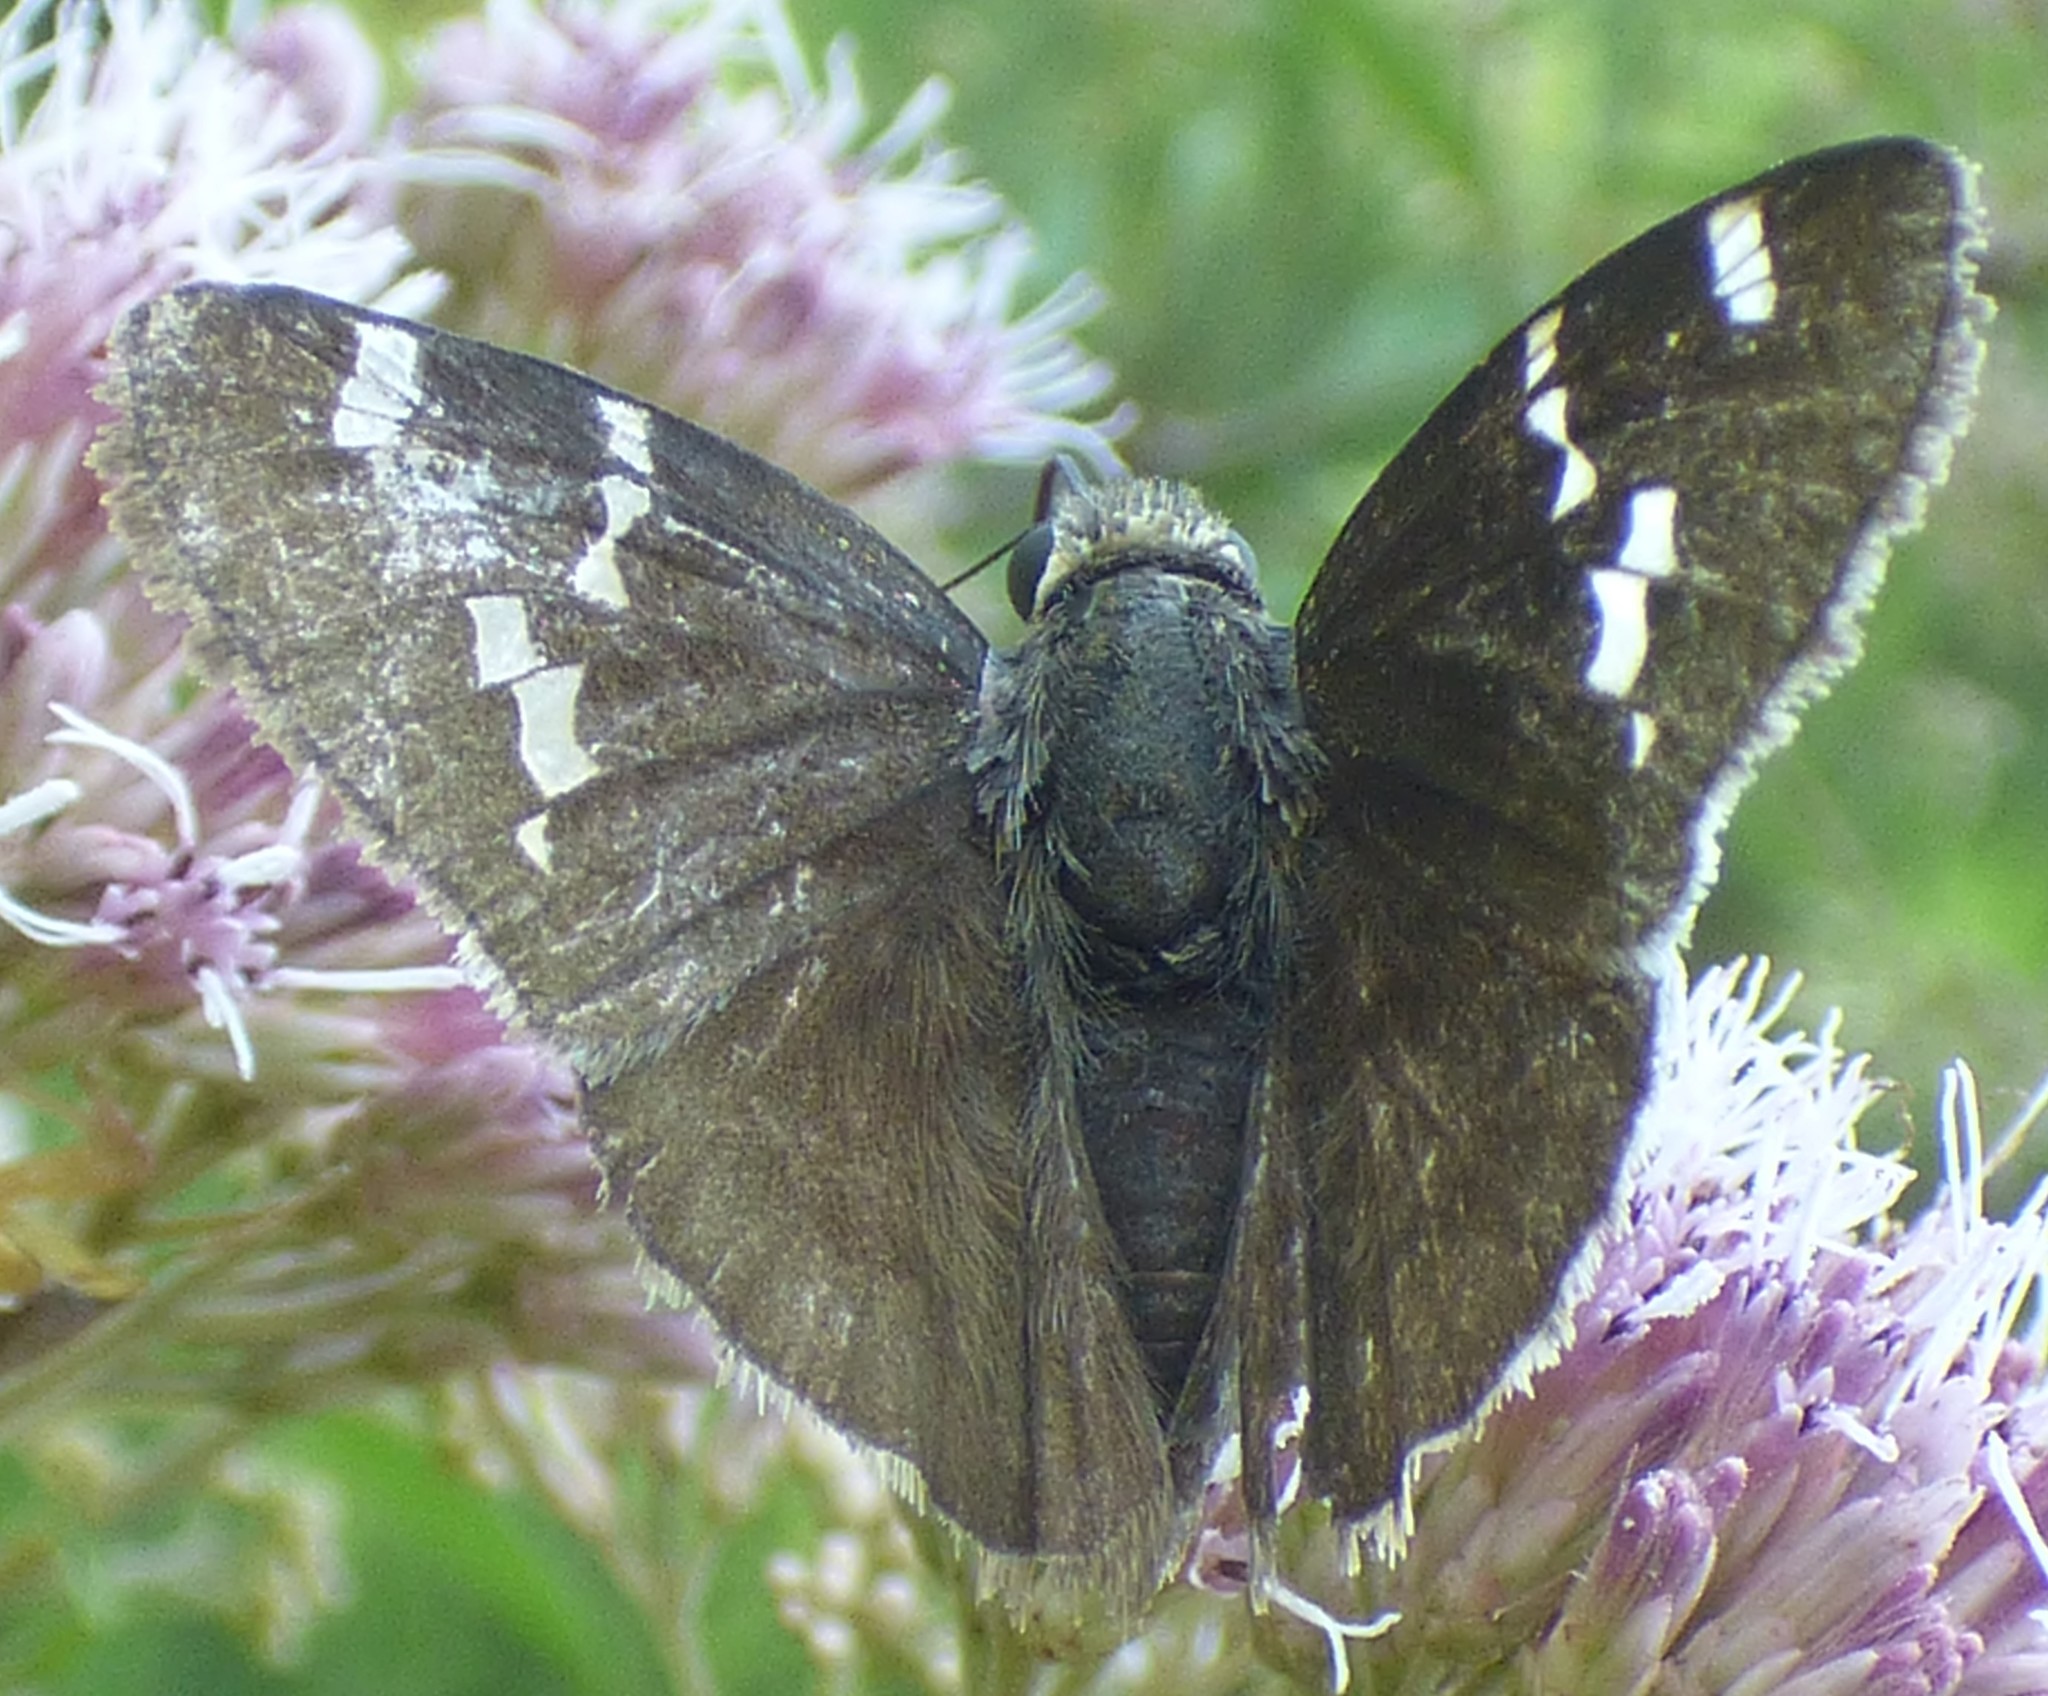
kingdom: Animalia
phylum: Arthropoda
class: Insecta
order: Lepidoptera
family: Hesperiidae
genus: Thorybes
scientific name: Thorybes daunus
